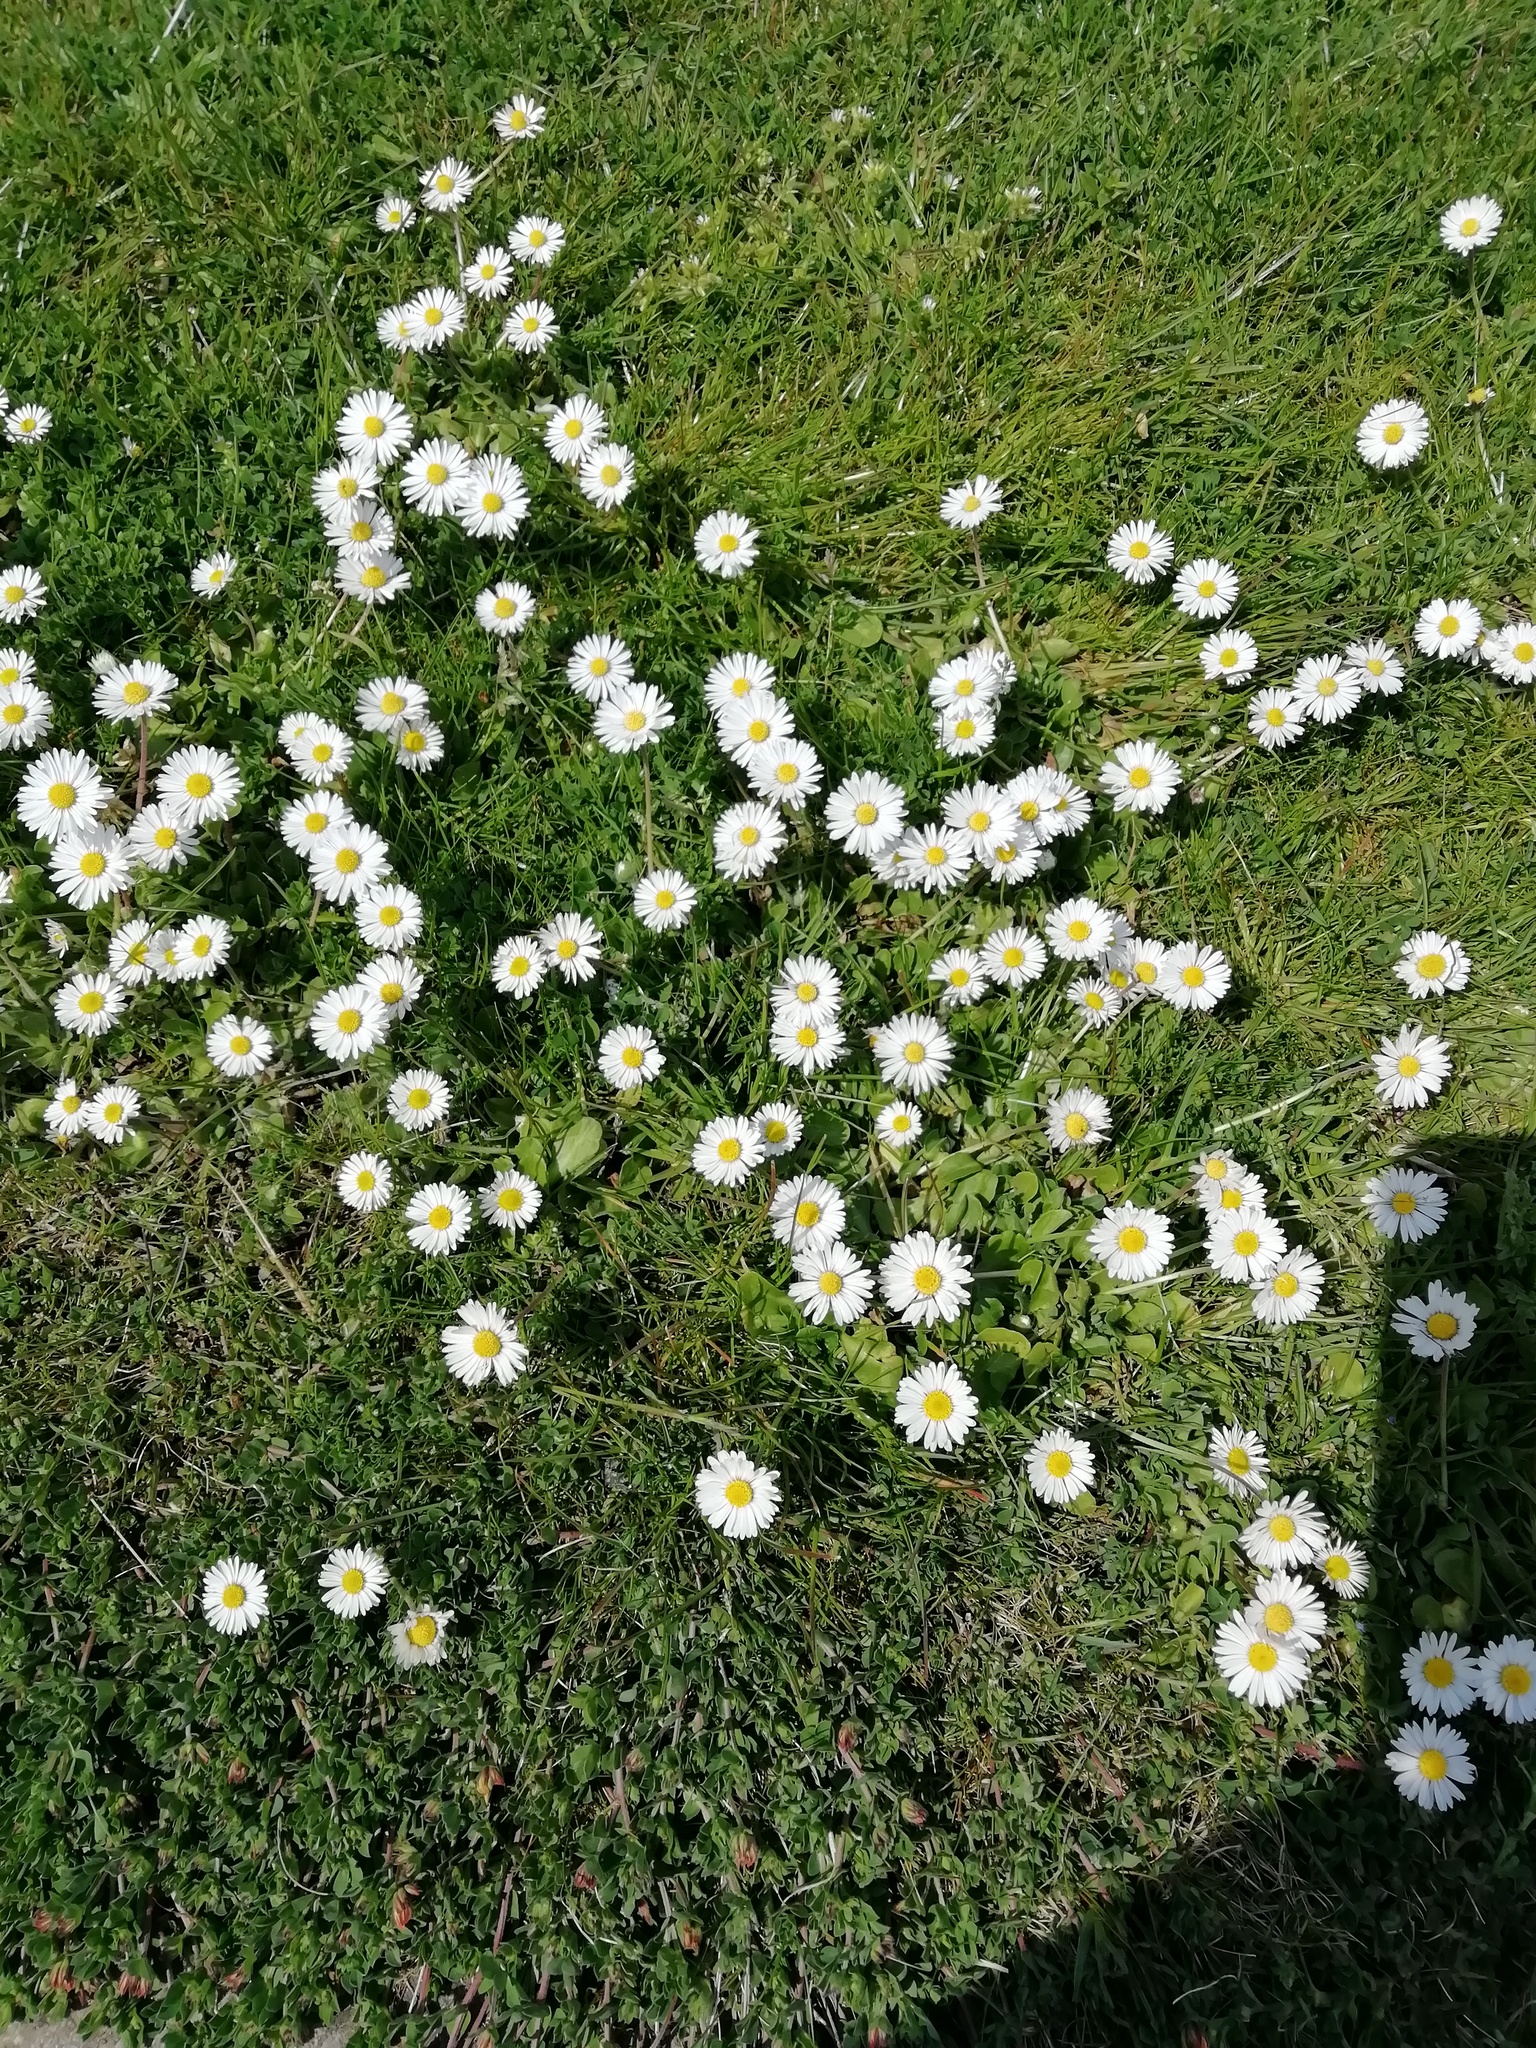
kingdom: Plantae
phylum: Tracheophyta
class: Magnoliopsida
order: Asterales
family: Asteraceae
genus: Bellis
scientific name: Bellis perennis
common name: Lawndaisy
